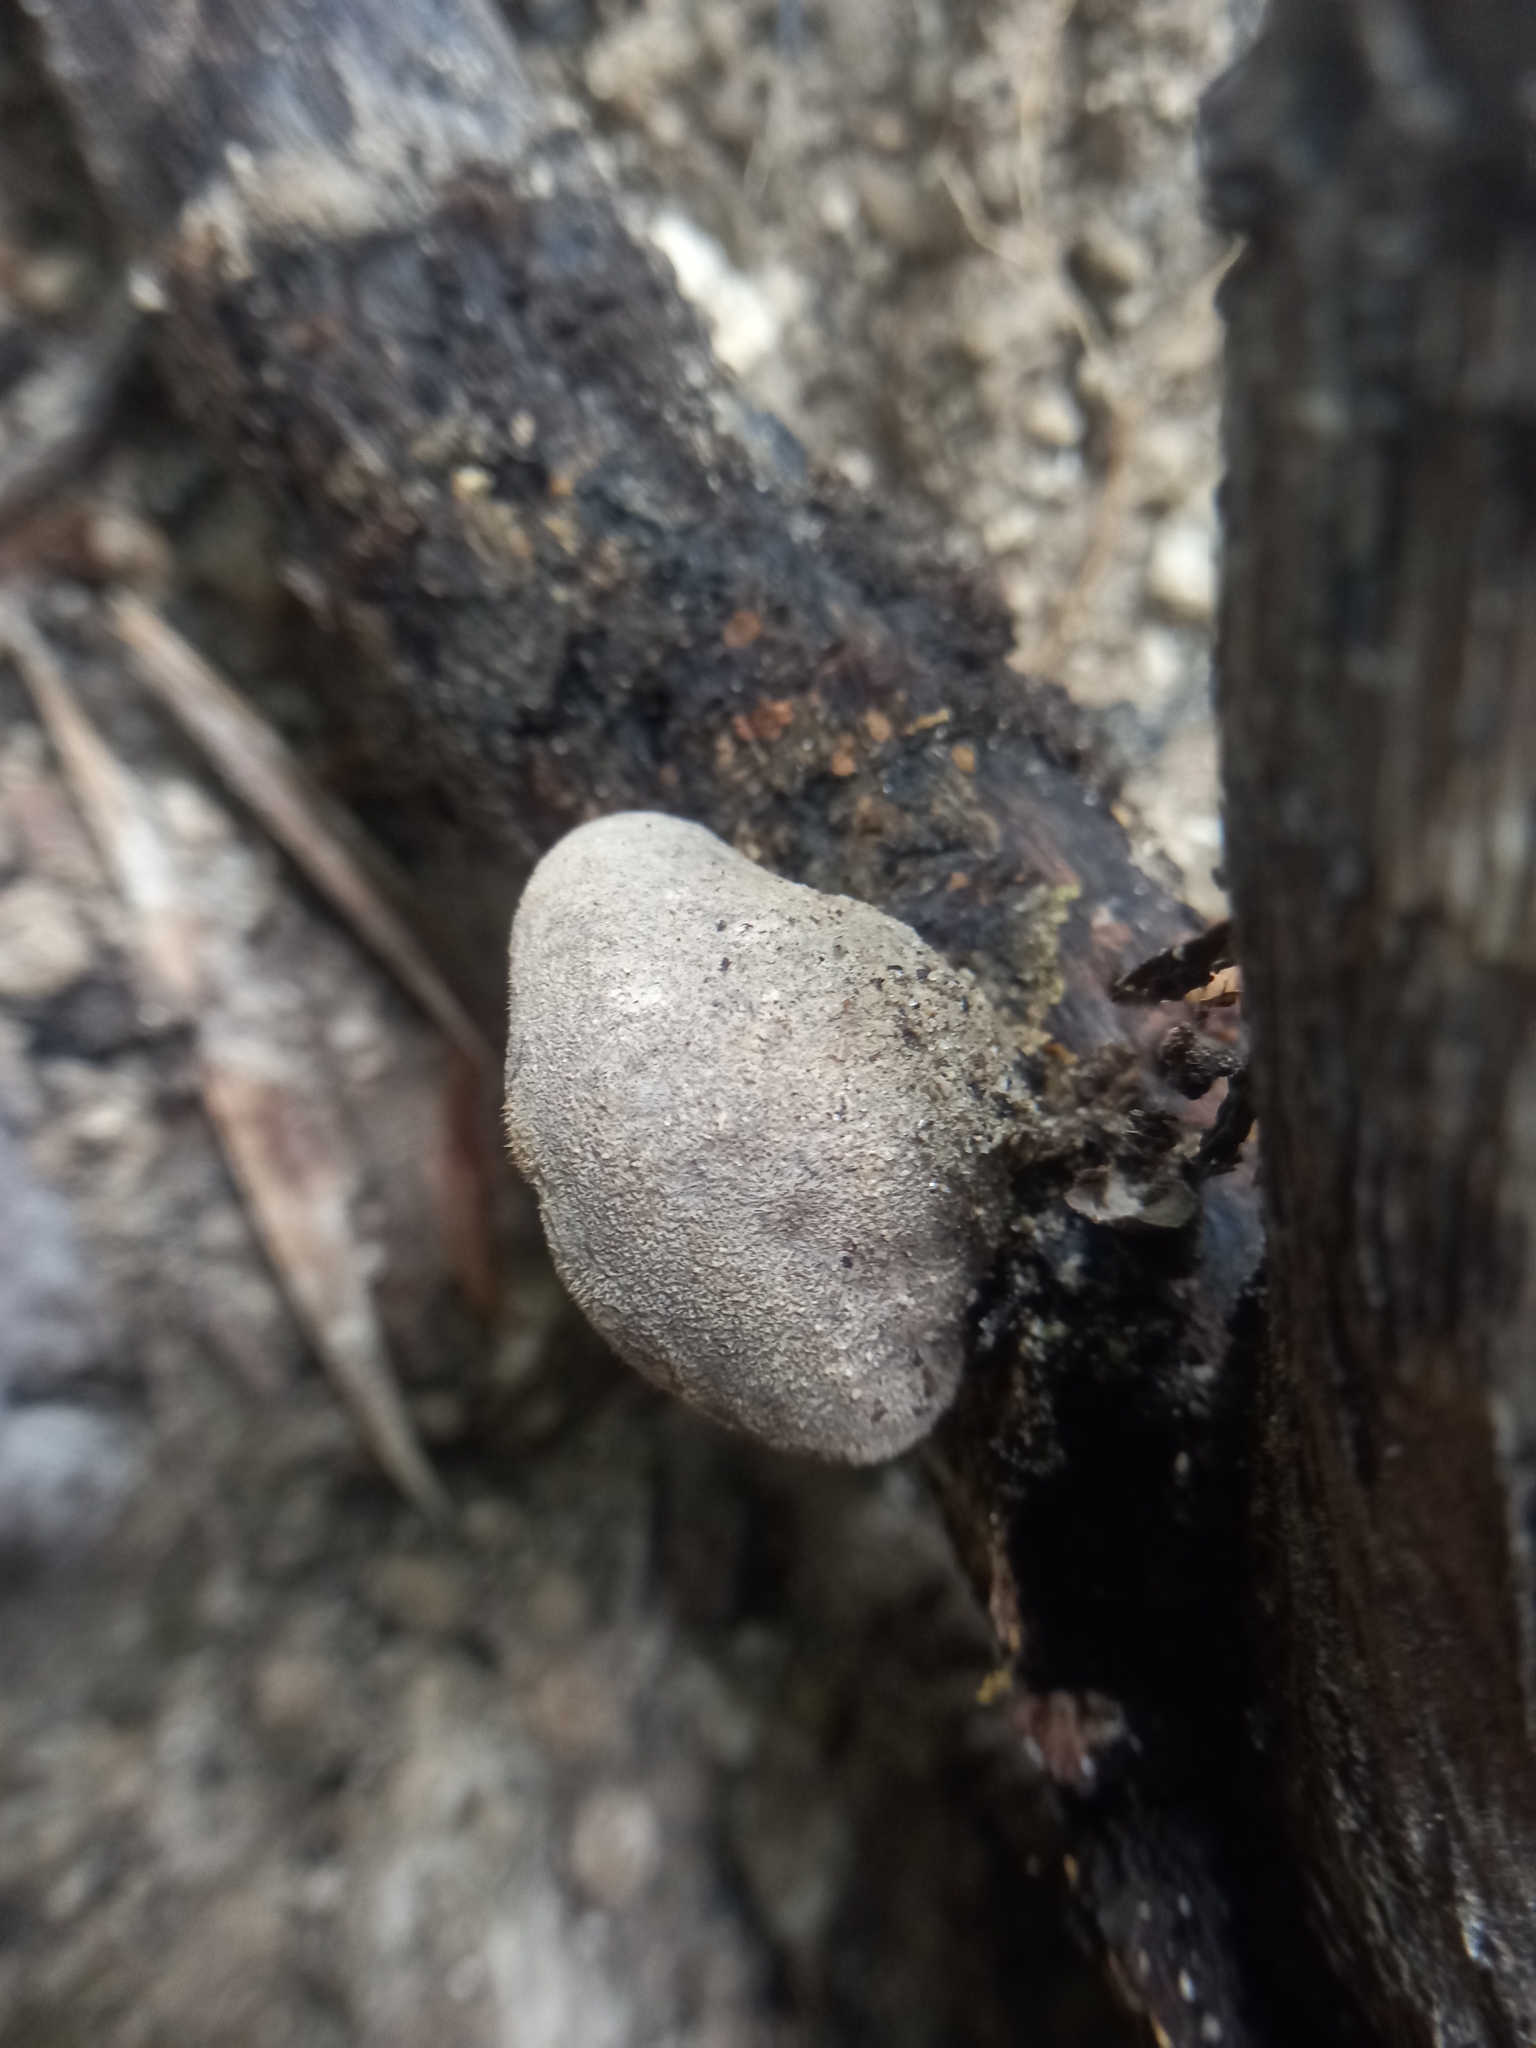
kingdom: Fungi
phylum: Basidiomycota
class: Agaricomycetes
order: Auriculariales
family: Auriculariaceae
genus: Auricularia
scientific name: Auricularia nigricans
